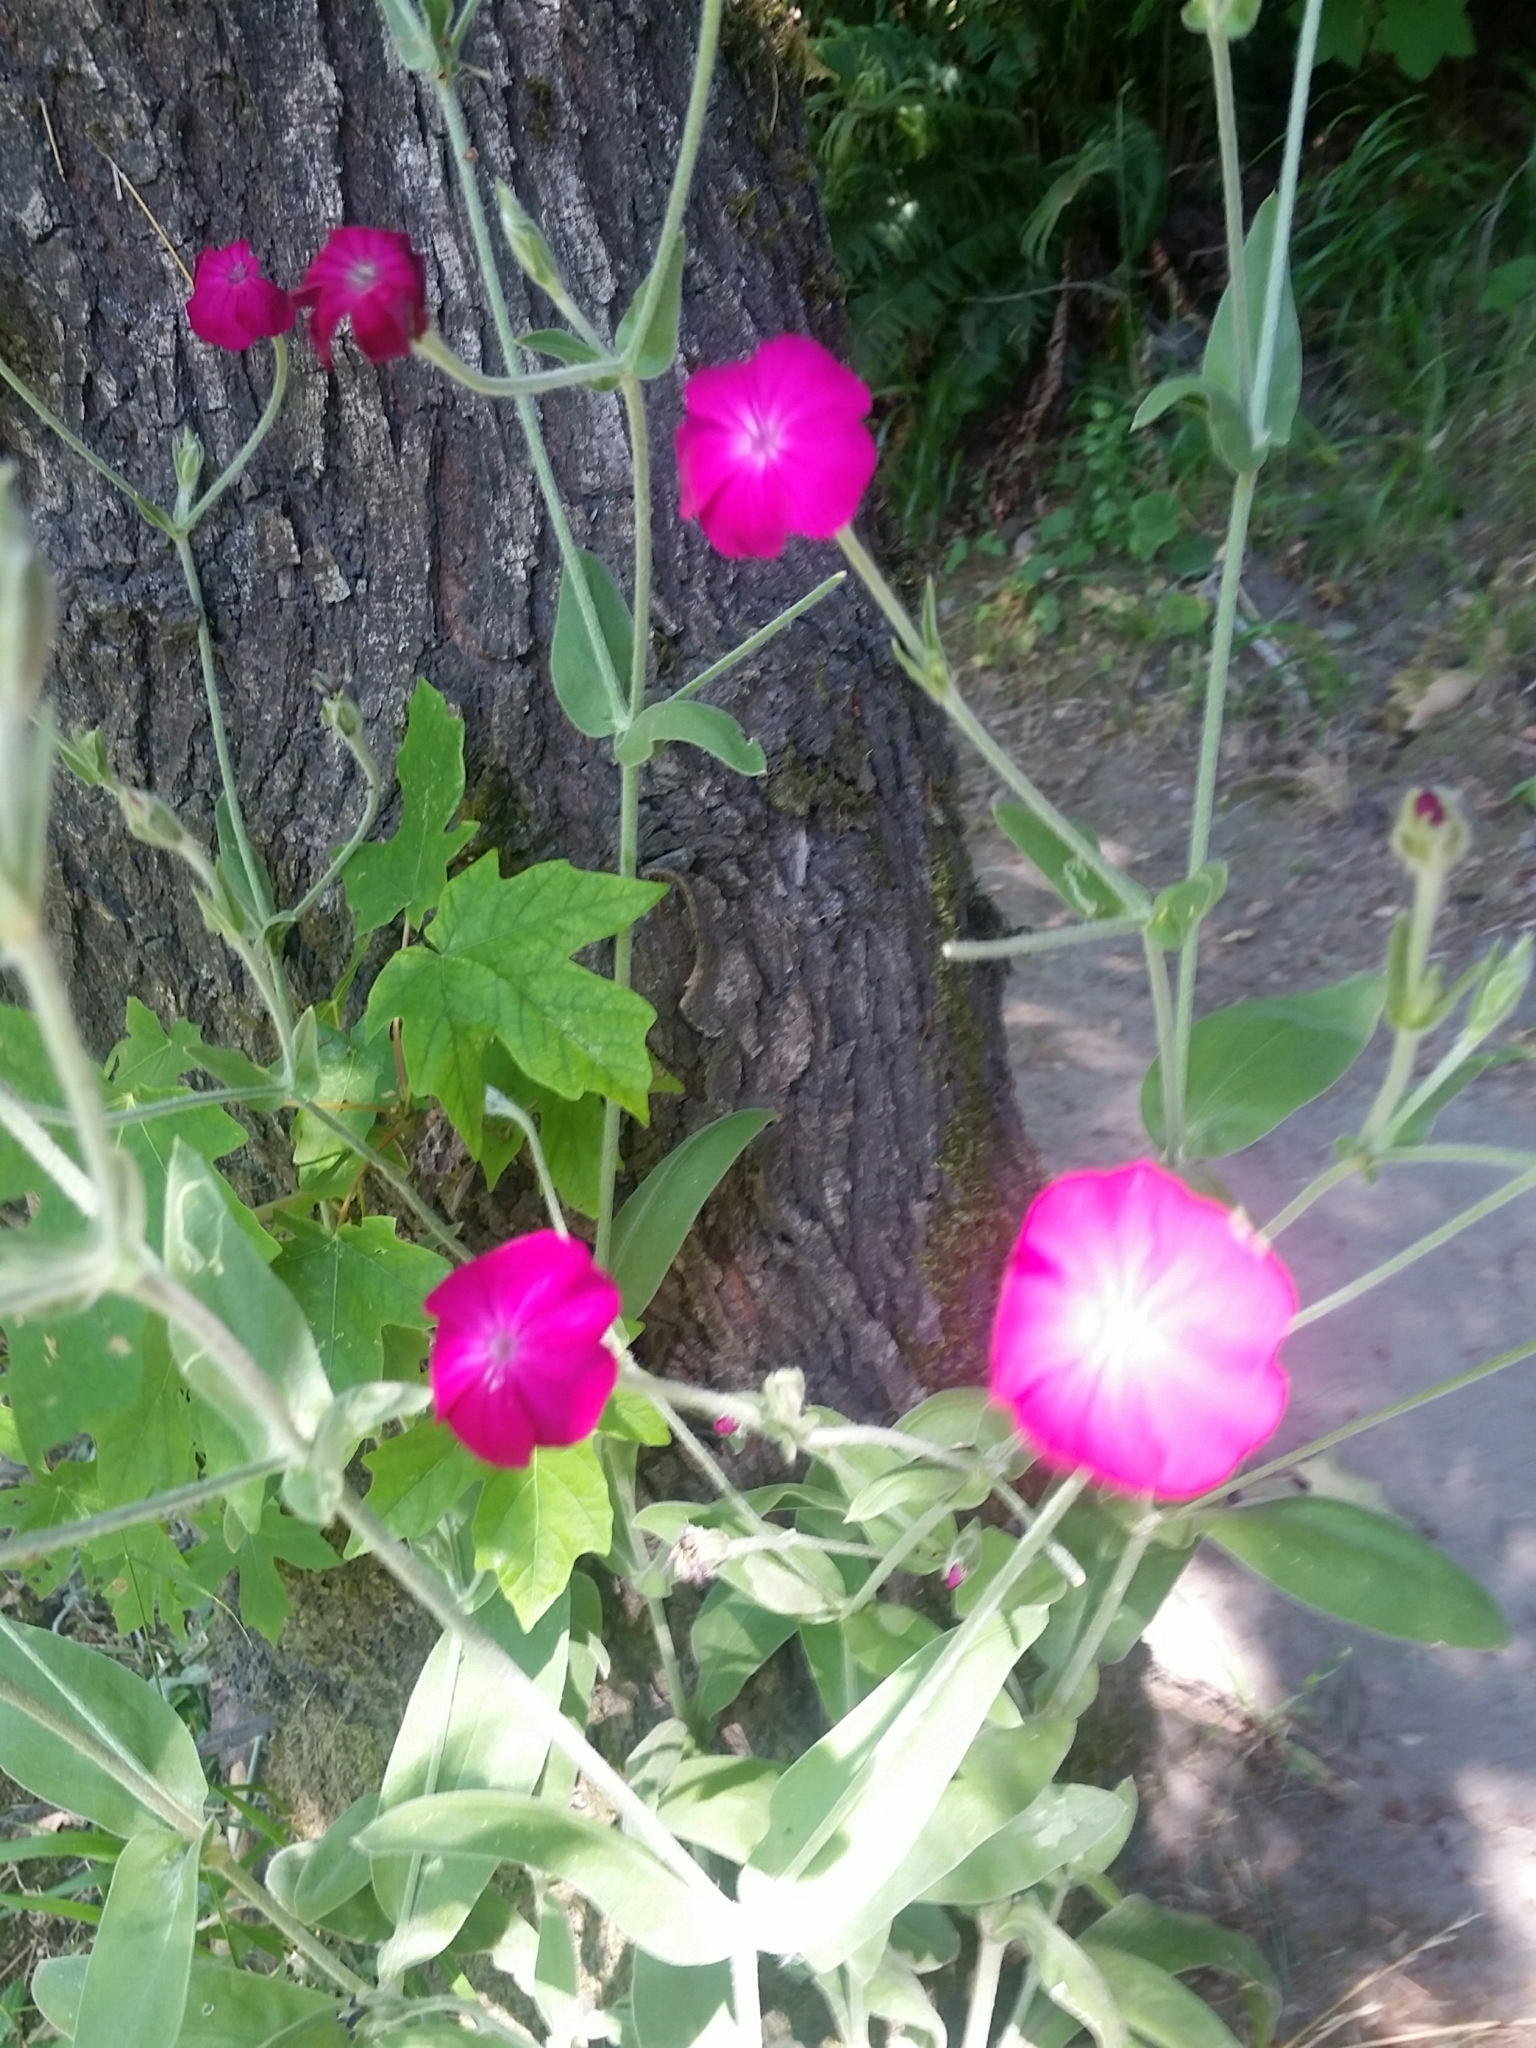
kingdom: Plantae
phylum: Tracheophyta
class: Magnoliopsida
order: Caryophyllales
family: Caryophyllaceae
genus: Silene
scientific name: Silene coronaria
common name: Rose campion
